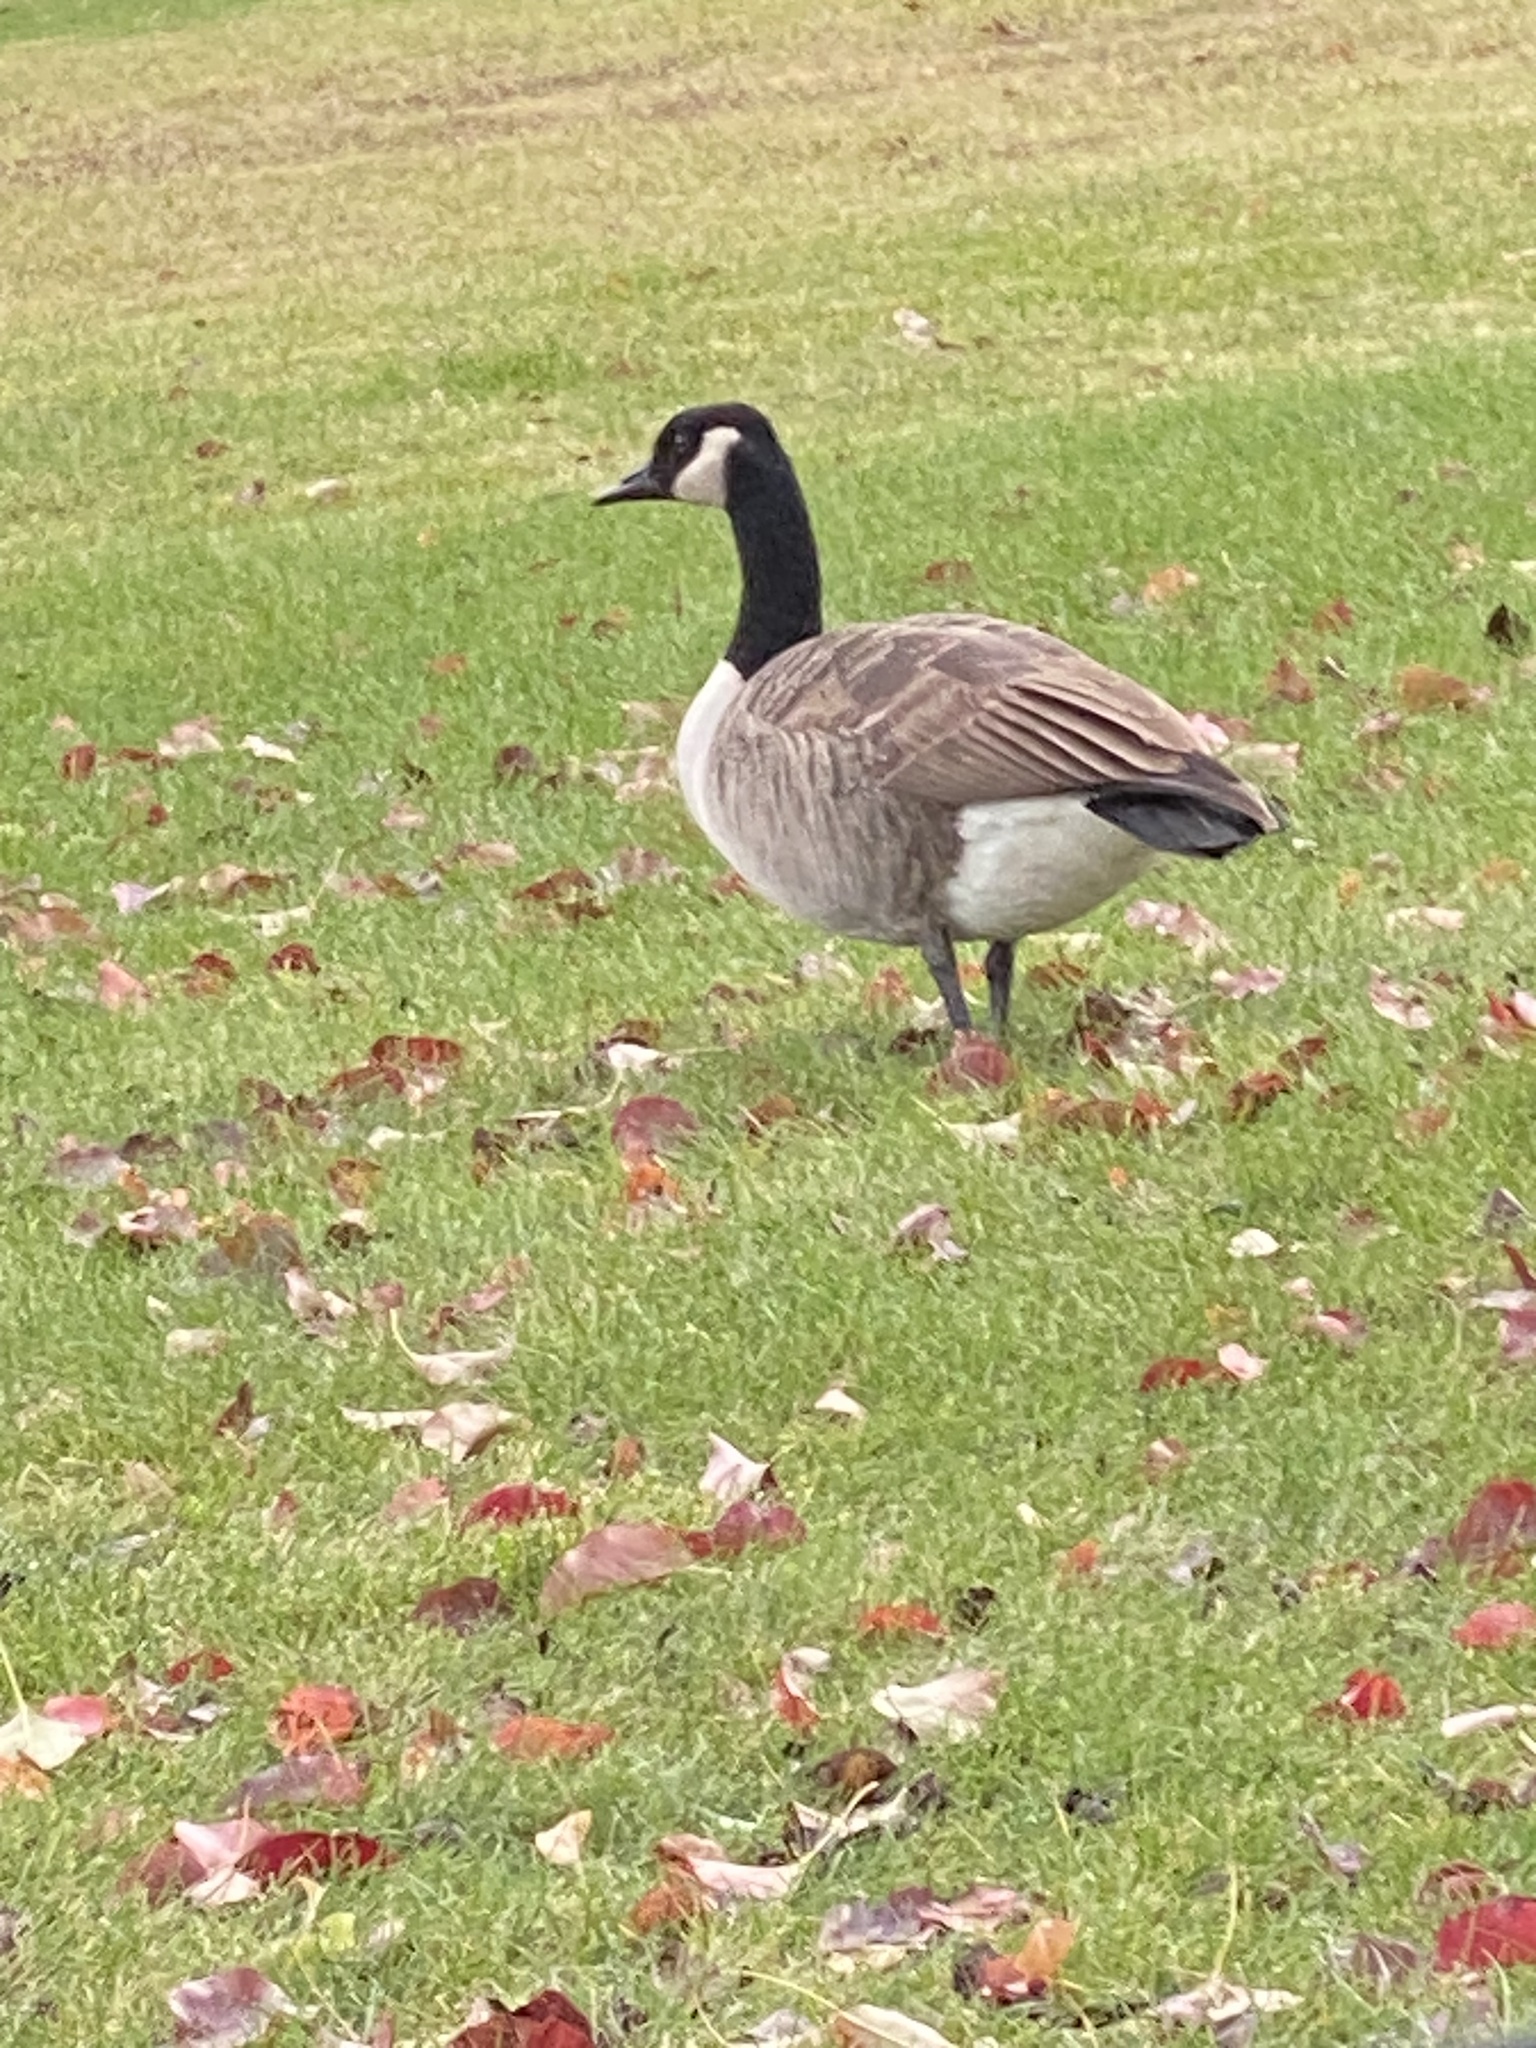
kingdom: Animalia
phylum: Chordata
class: Aves
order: Anseriformes
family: Anatidae
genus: Branta
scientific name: Branta canadensis
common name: Canada goose
